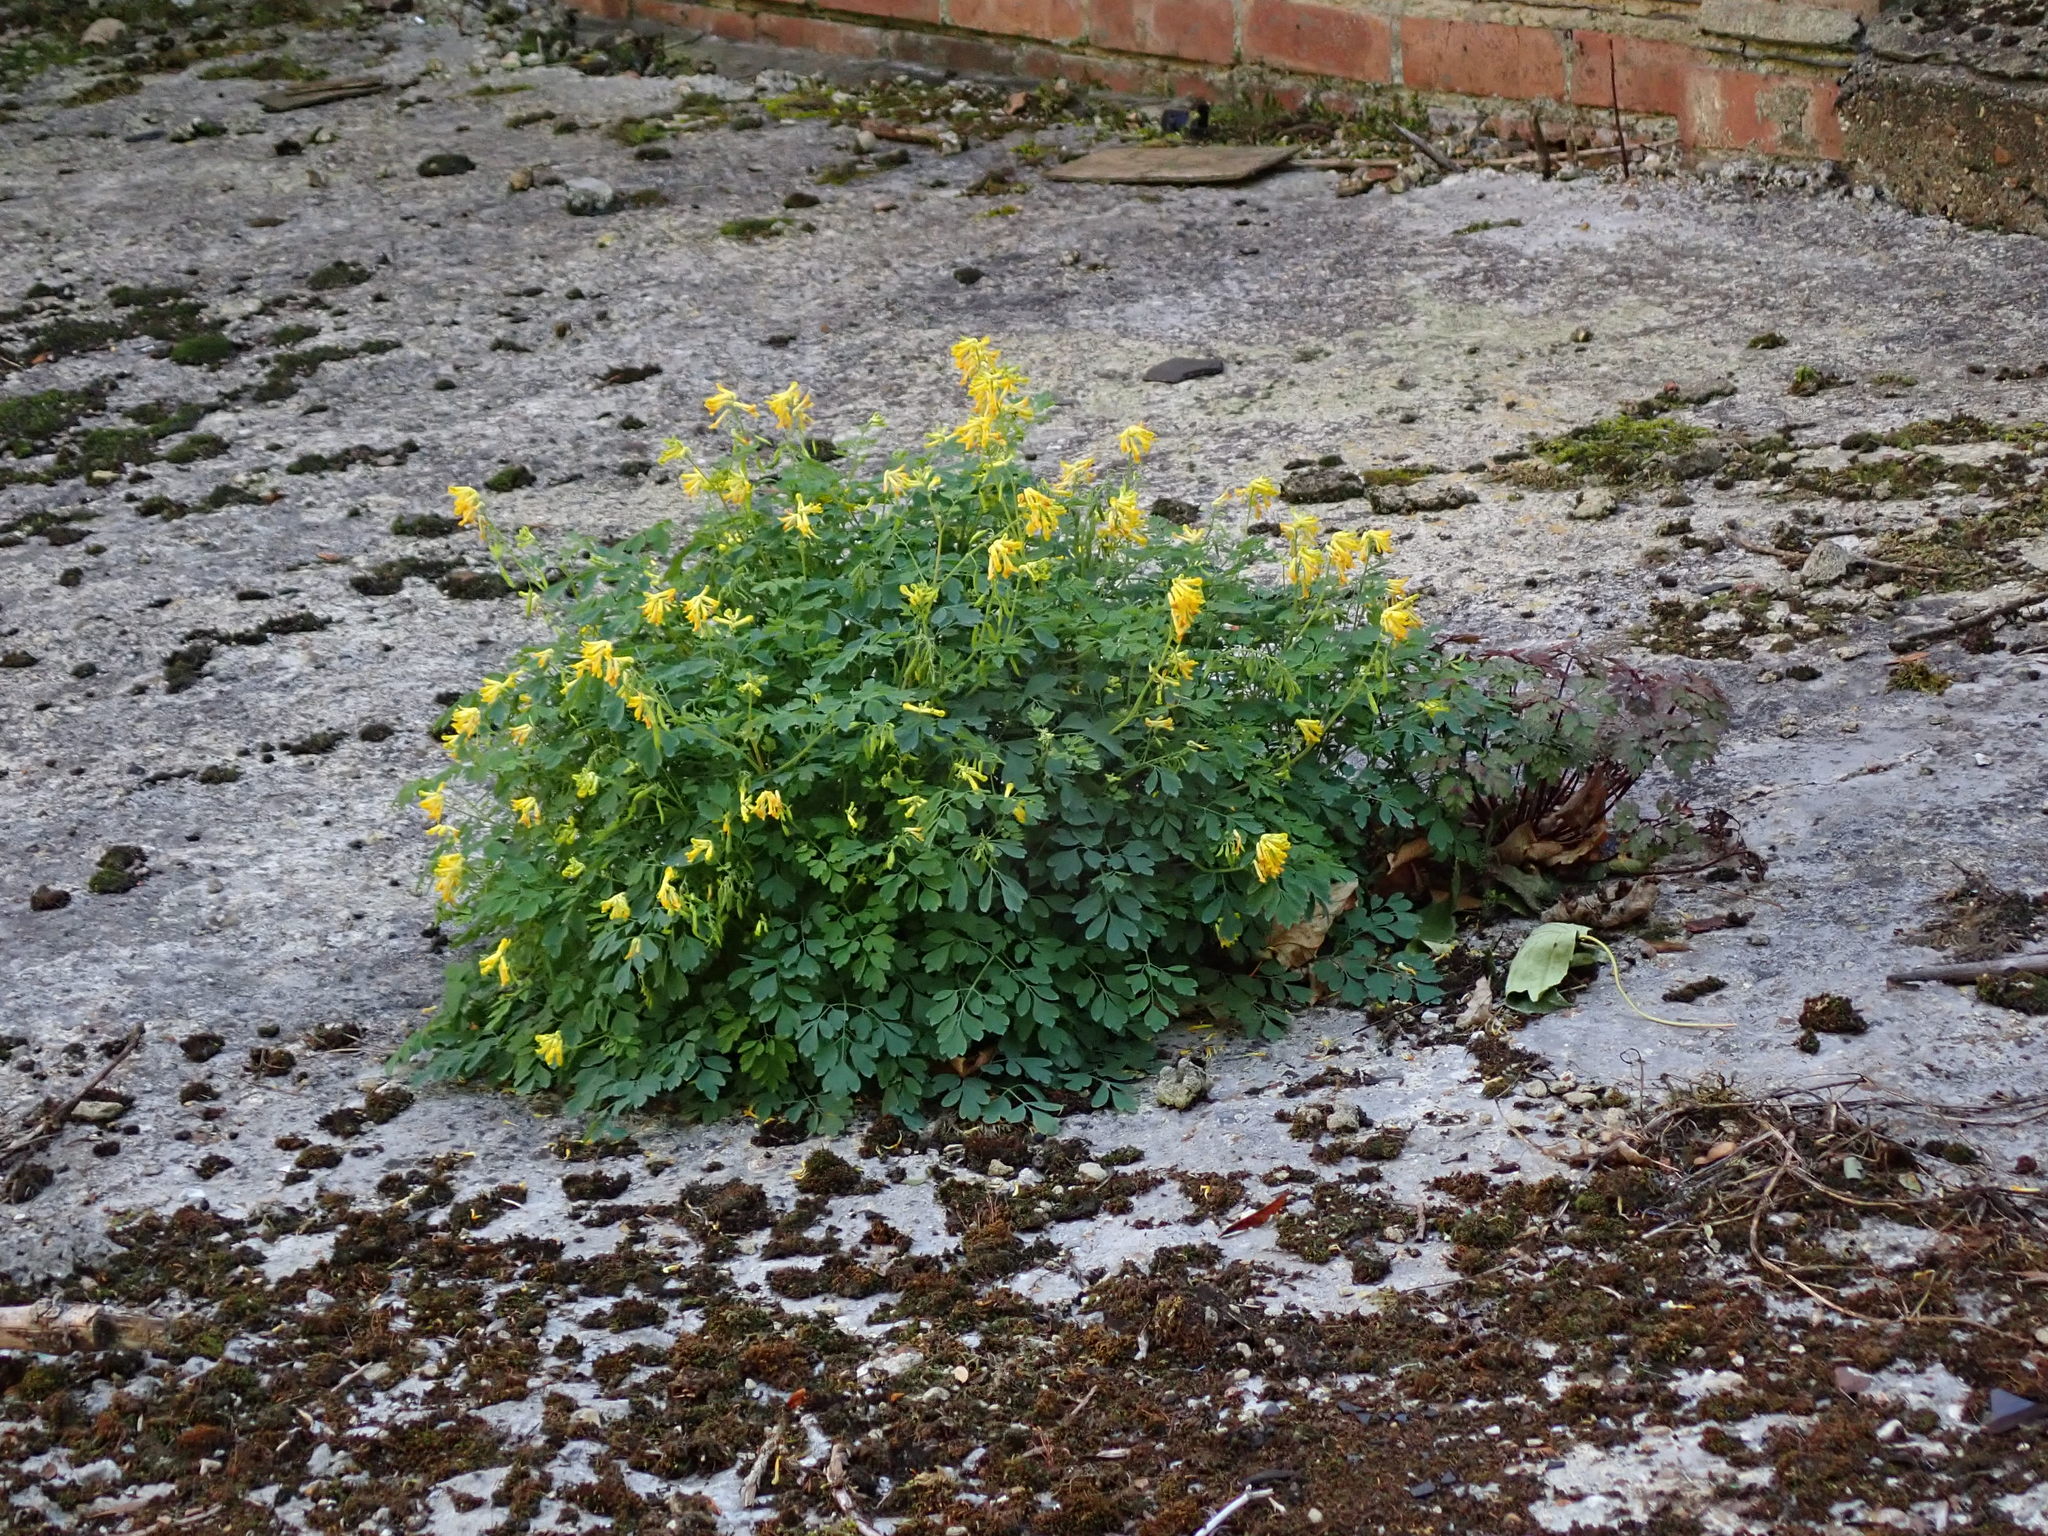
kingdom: Plantae
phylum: Tracheophyta
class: Magnoliopsida
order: Ranunculales
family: Papaveraceae
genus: Pseudofumaria
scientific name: Pseudofumaria lutea
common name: Yellow corydalis
